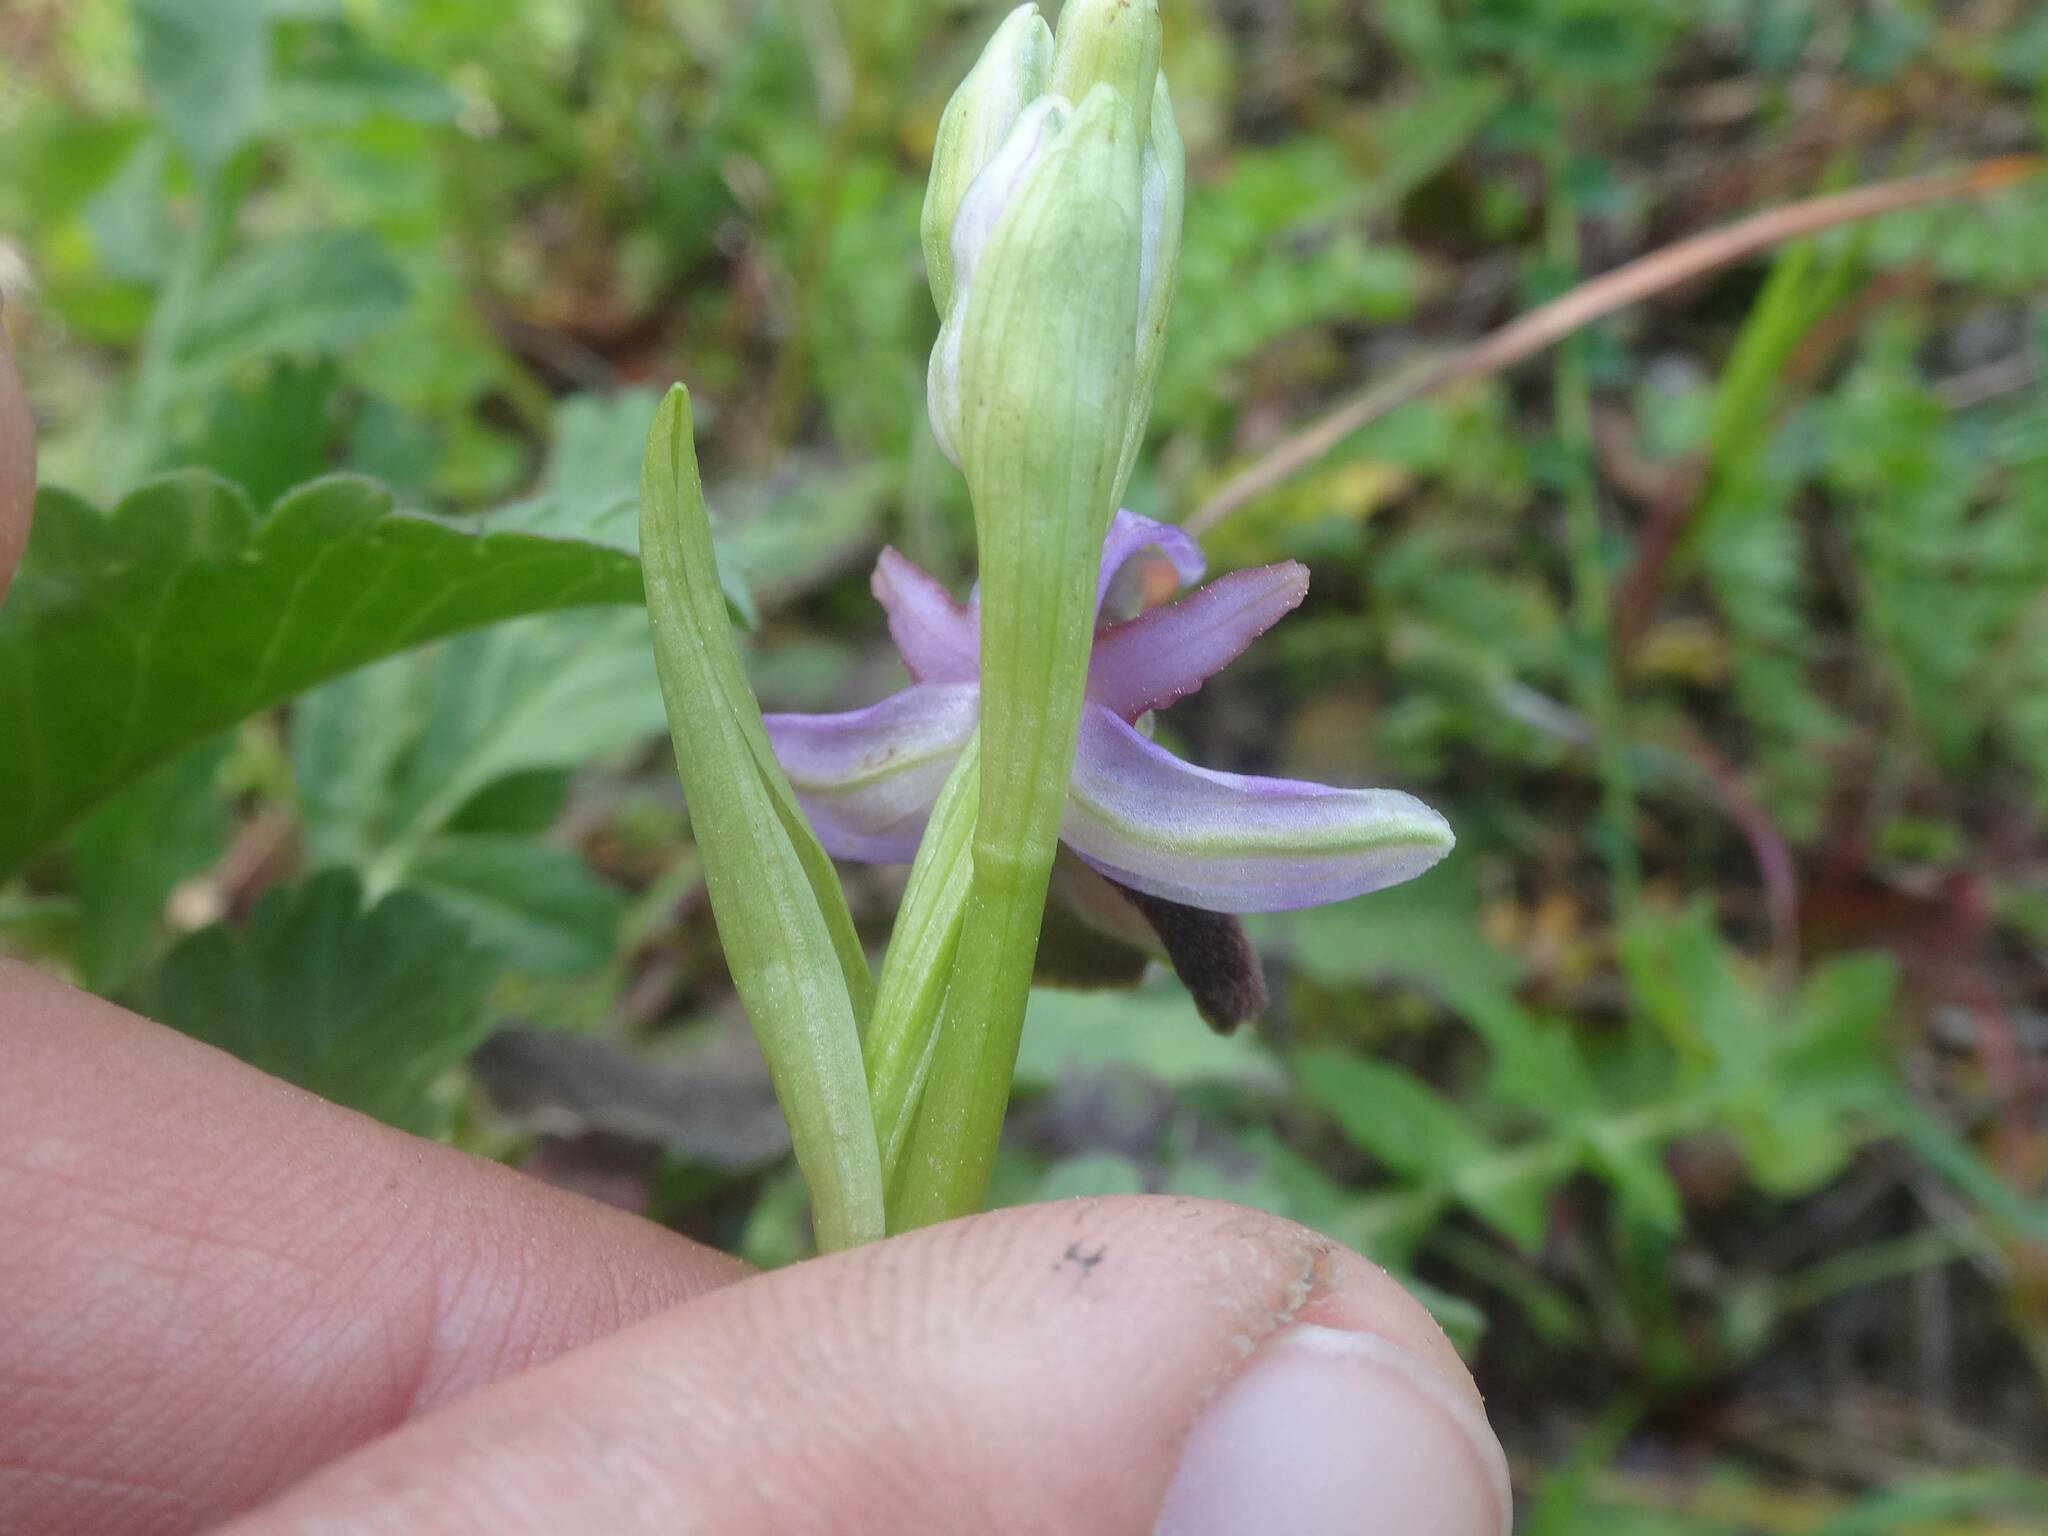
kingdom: Plantae
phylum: Tracheophyta
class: Liliopsida
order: Asparagales
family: Orchidaceae
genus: Ophrys
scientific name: Ophrys bertolonii
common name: Bertoloni's bee orchid
